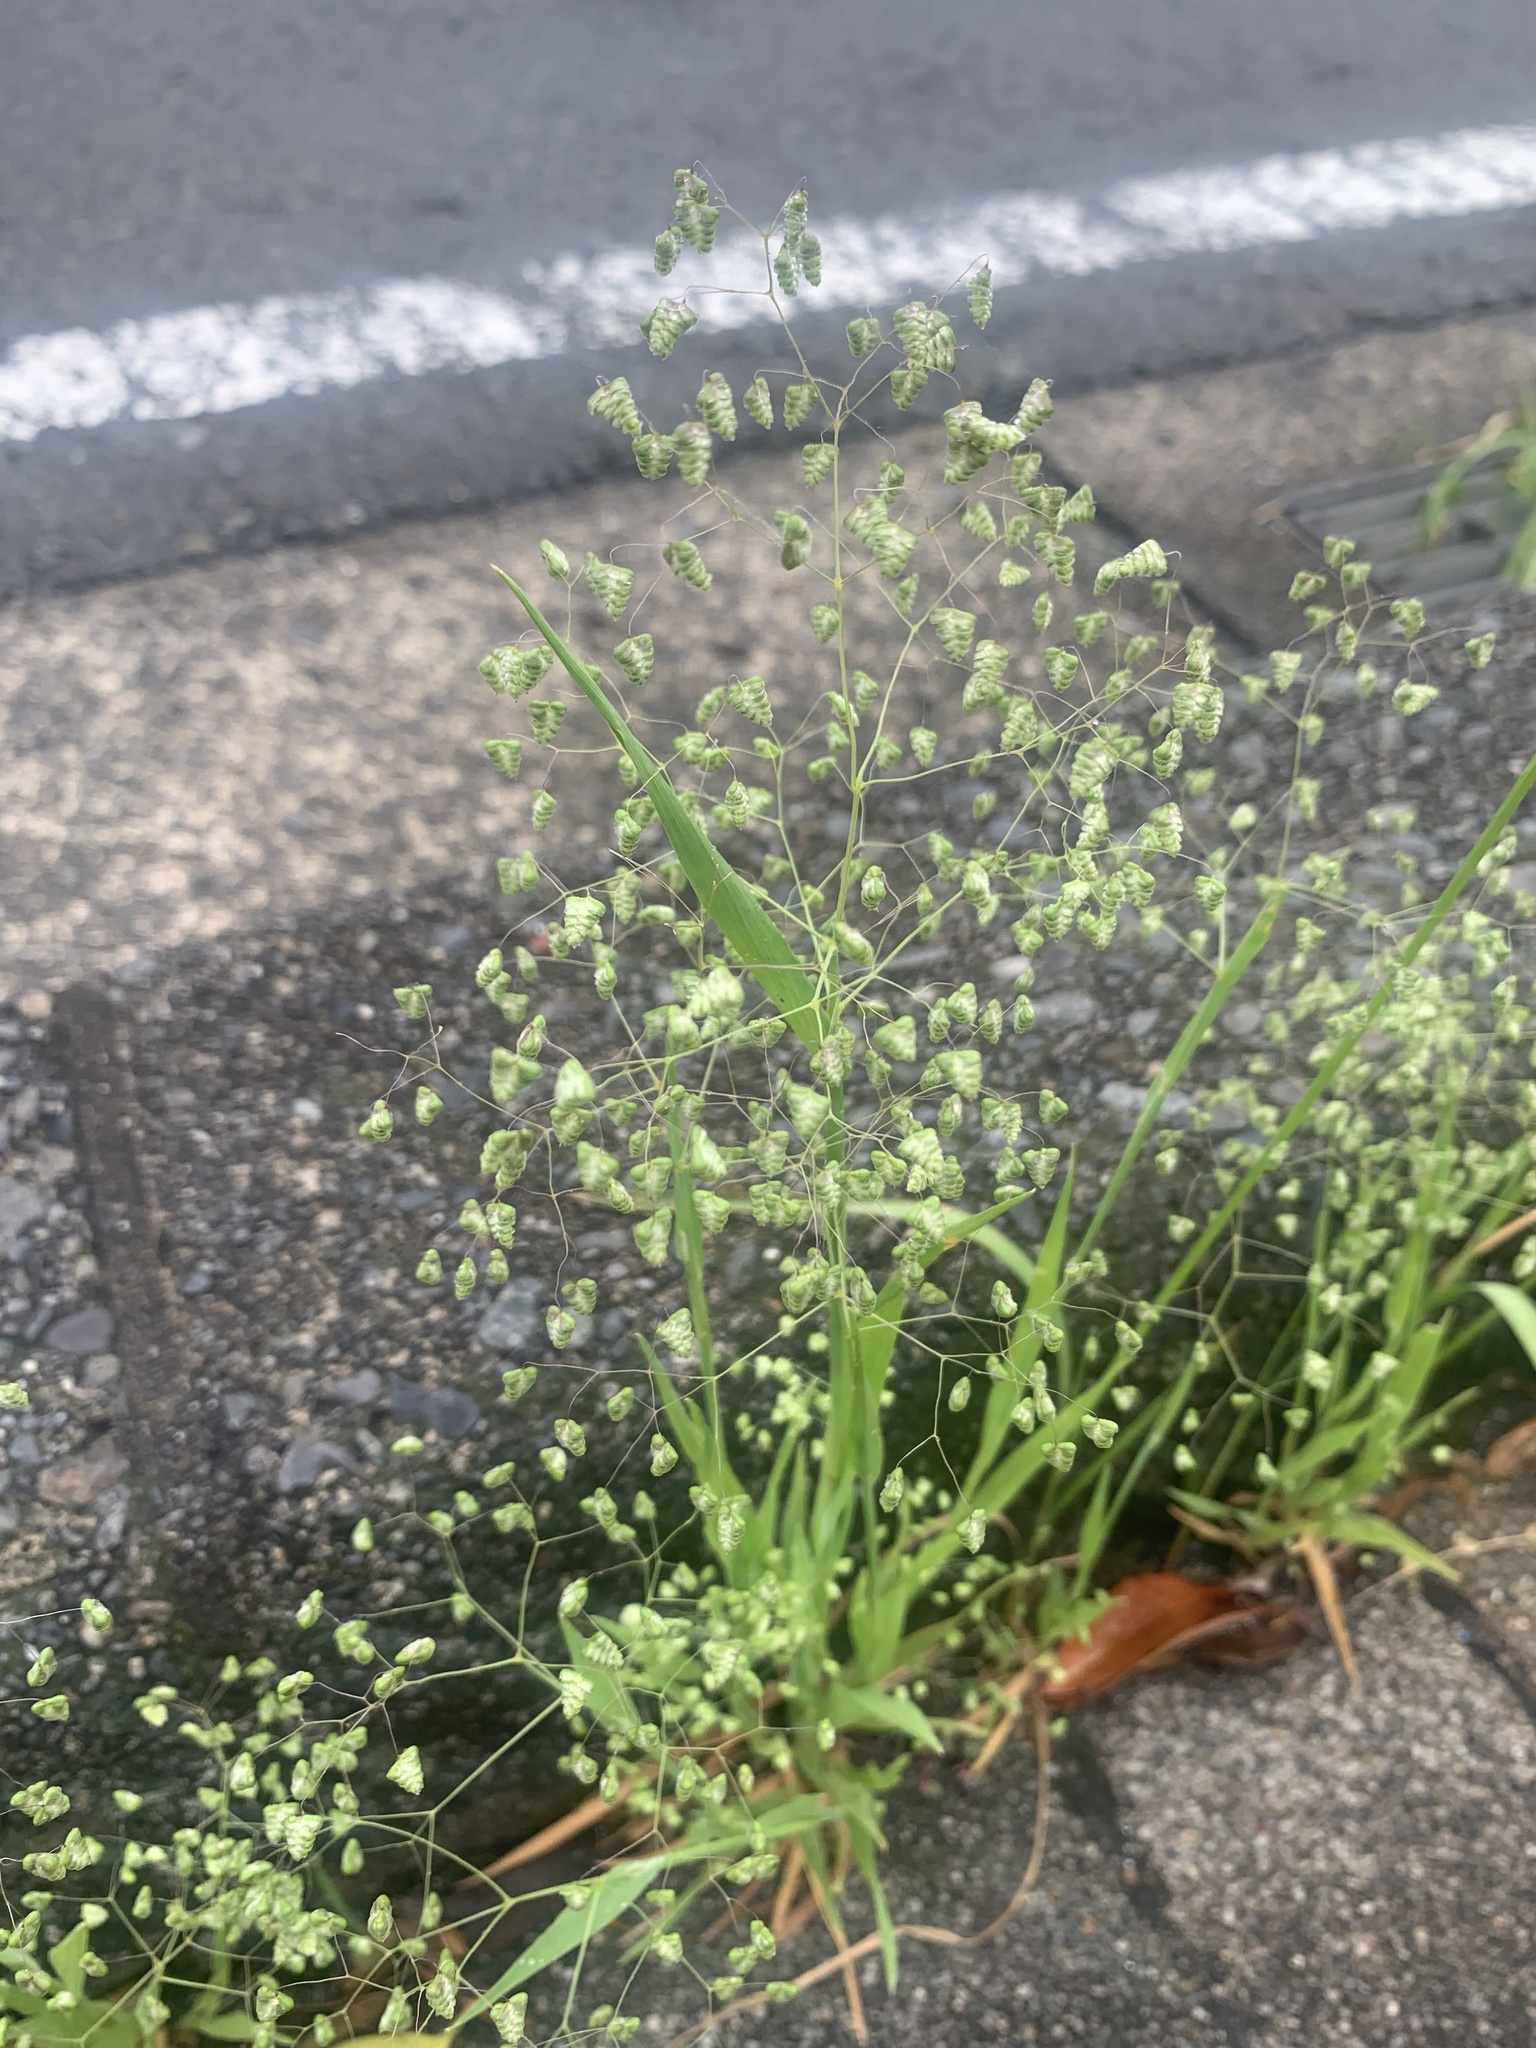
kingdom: Plantae
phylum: Tracheophyta
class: Liliopsida
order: Poales
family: Poaceae
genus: Briza
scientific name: Briza minor
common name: Lesser quaking-grass
